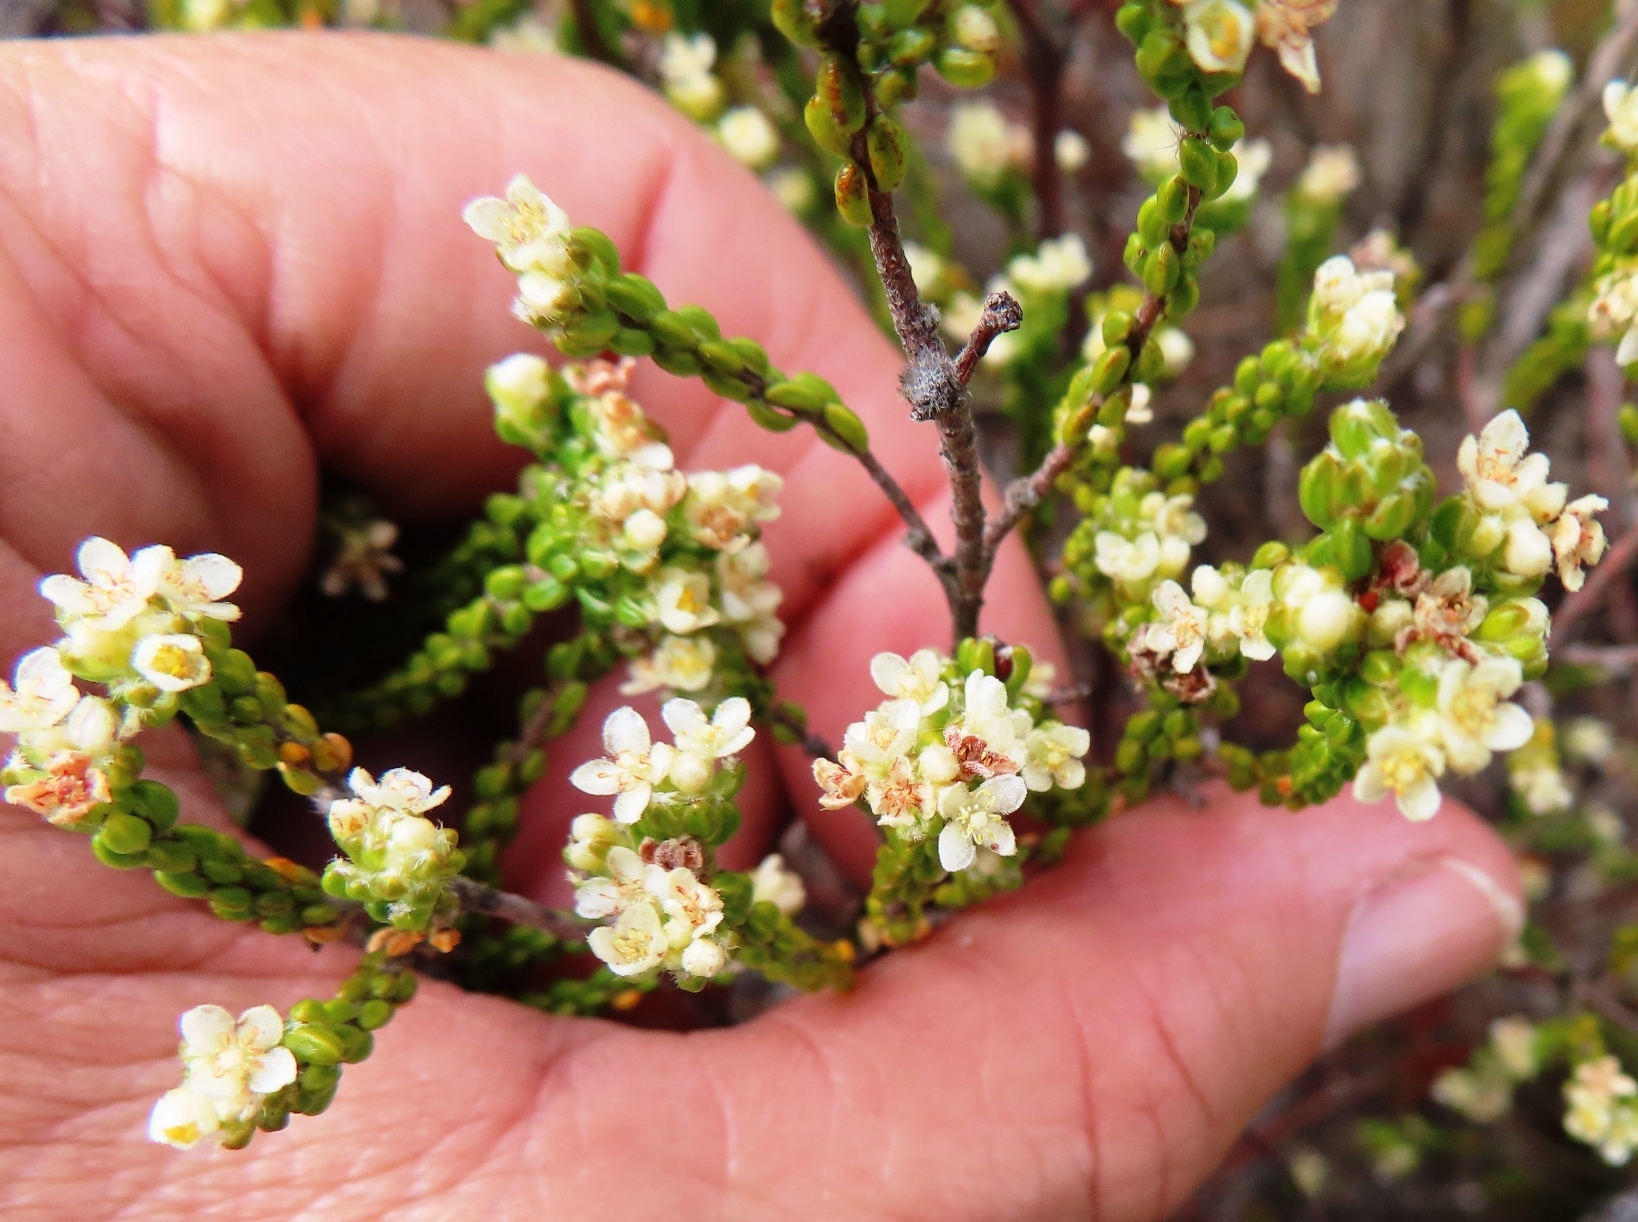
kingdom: Plantae
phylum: Tracheophyta
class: Magnoliopsida
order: Malvales
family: Thymelaeaceae
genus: Lachnaea
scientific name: Lachnaea ericoides
